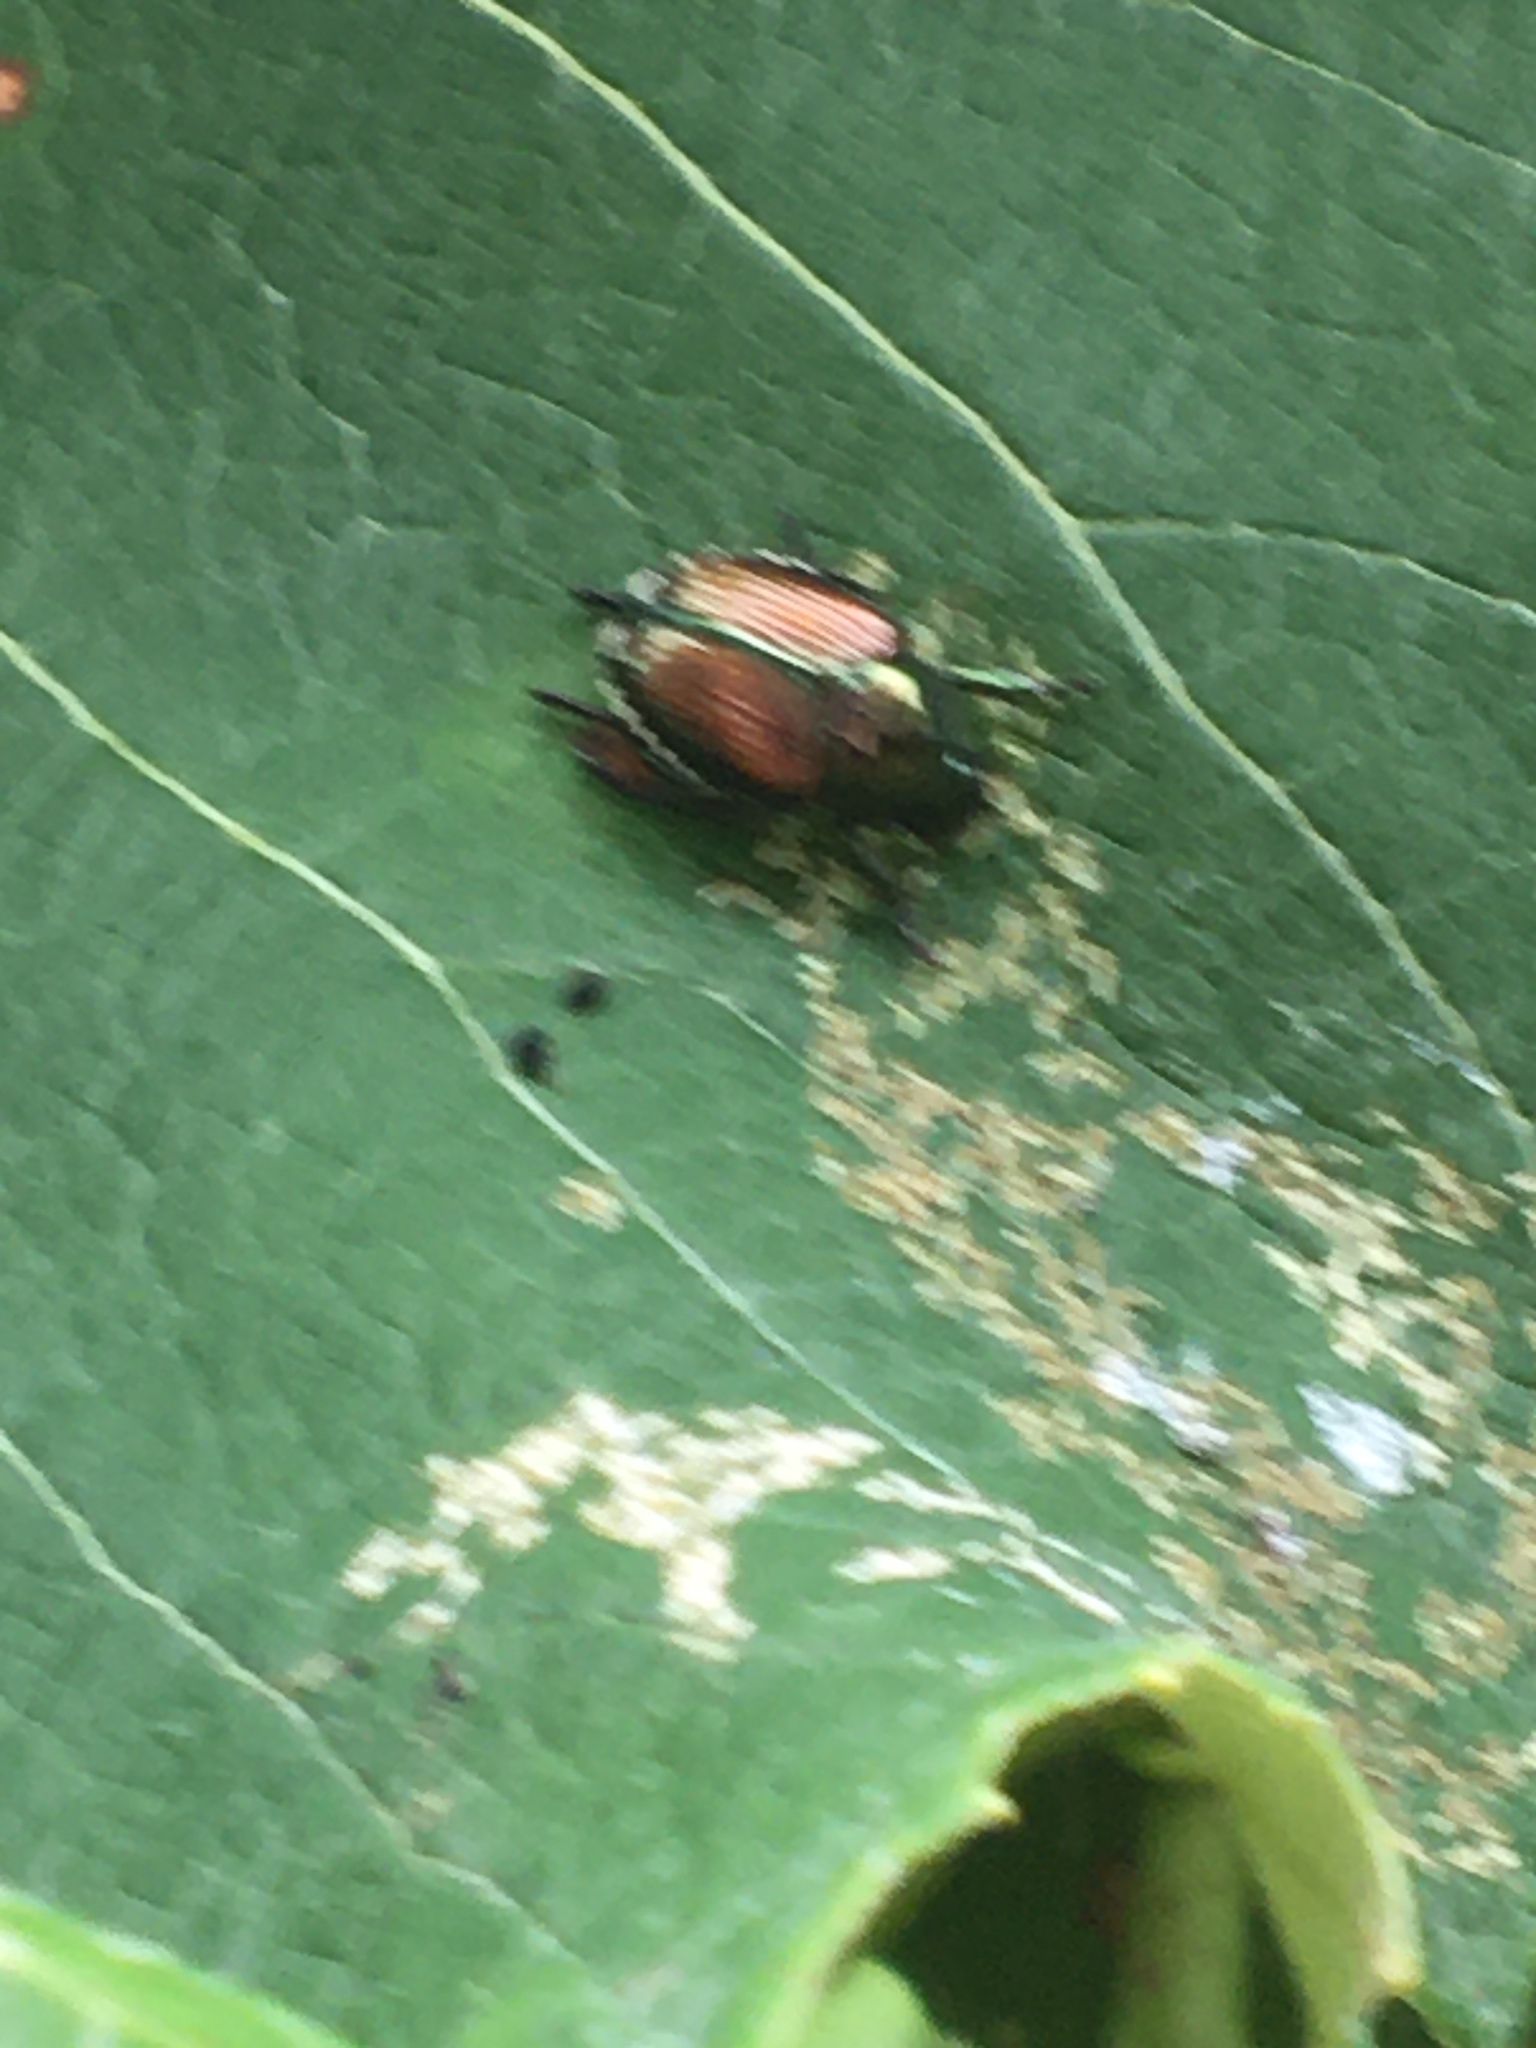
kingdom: Animalia
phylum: Arthropoda
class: Insecta
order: Coleoptera
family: Scarabaeidae
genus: Popillia
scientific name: Popillia japonica
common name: Japanese beetle
